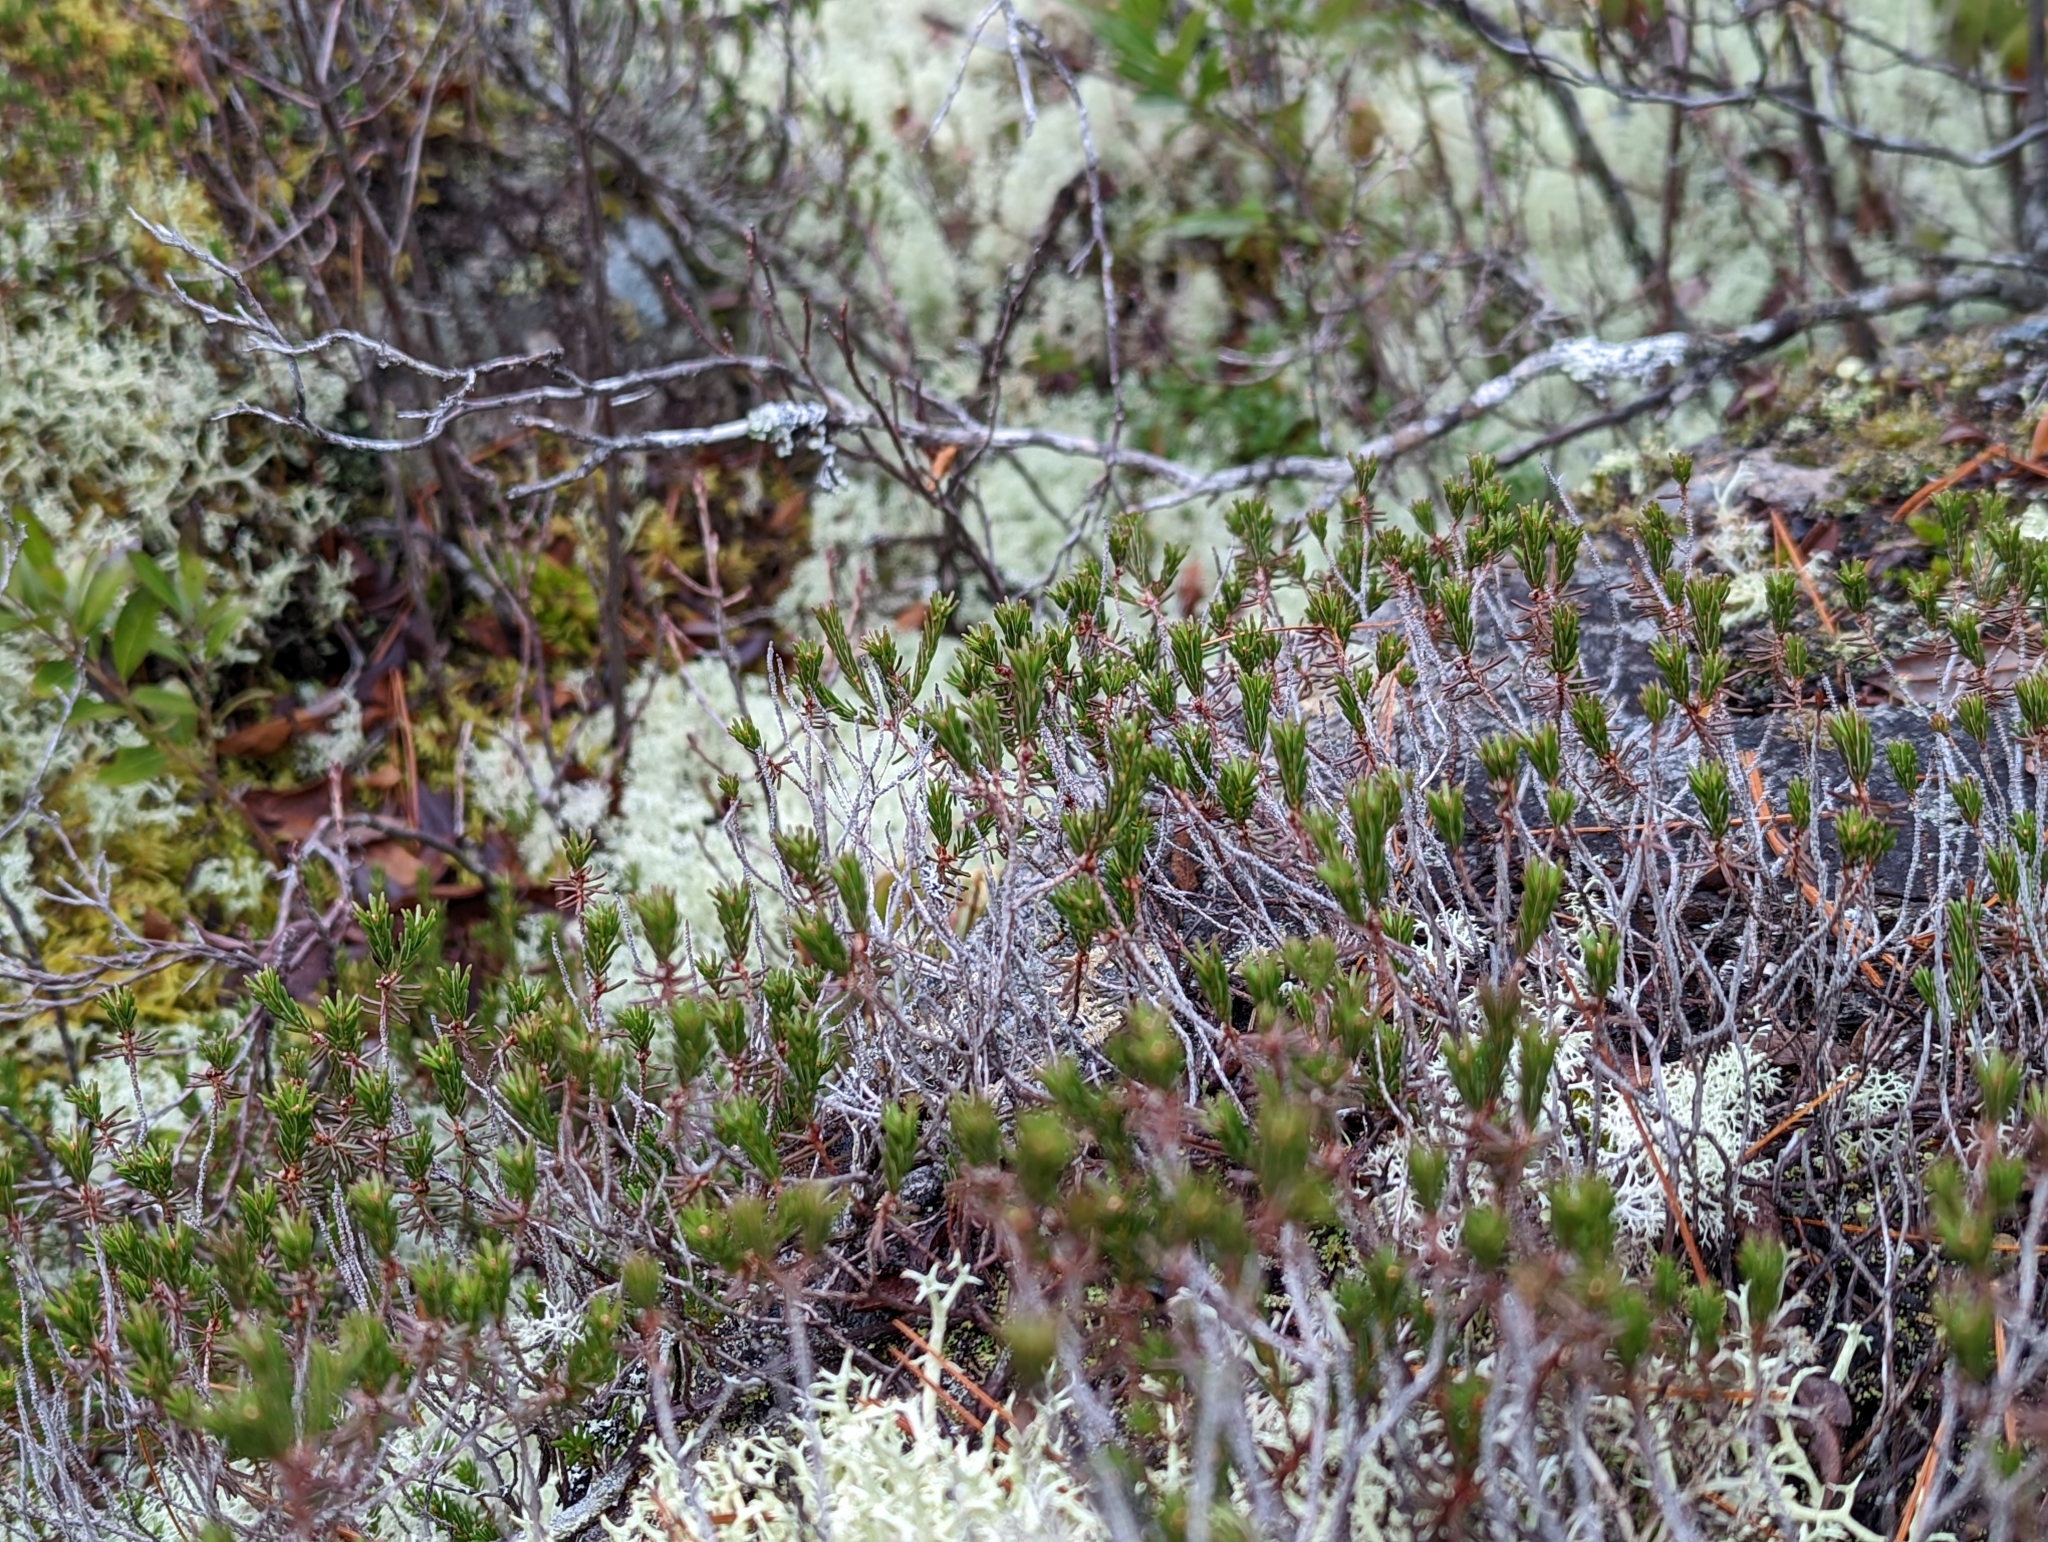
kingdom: Plantae
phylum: Tracheophyta
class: Magnoliopsida
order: Ericales
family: Ericaceae
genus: Corema
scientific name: Corema conradii
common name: Broom-crowberry
